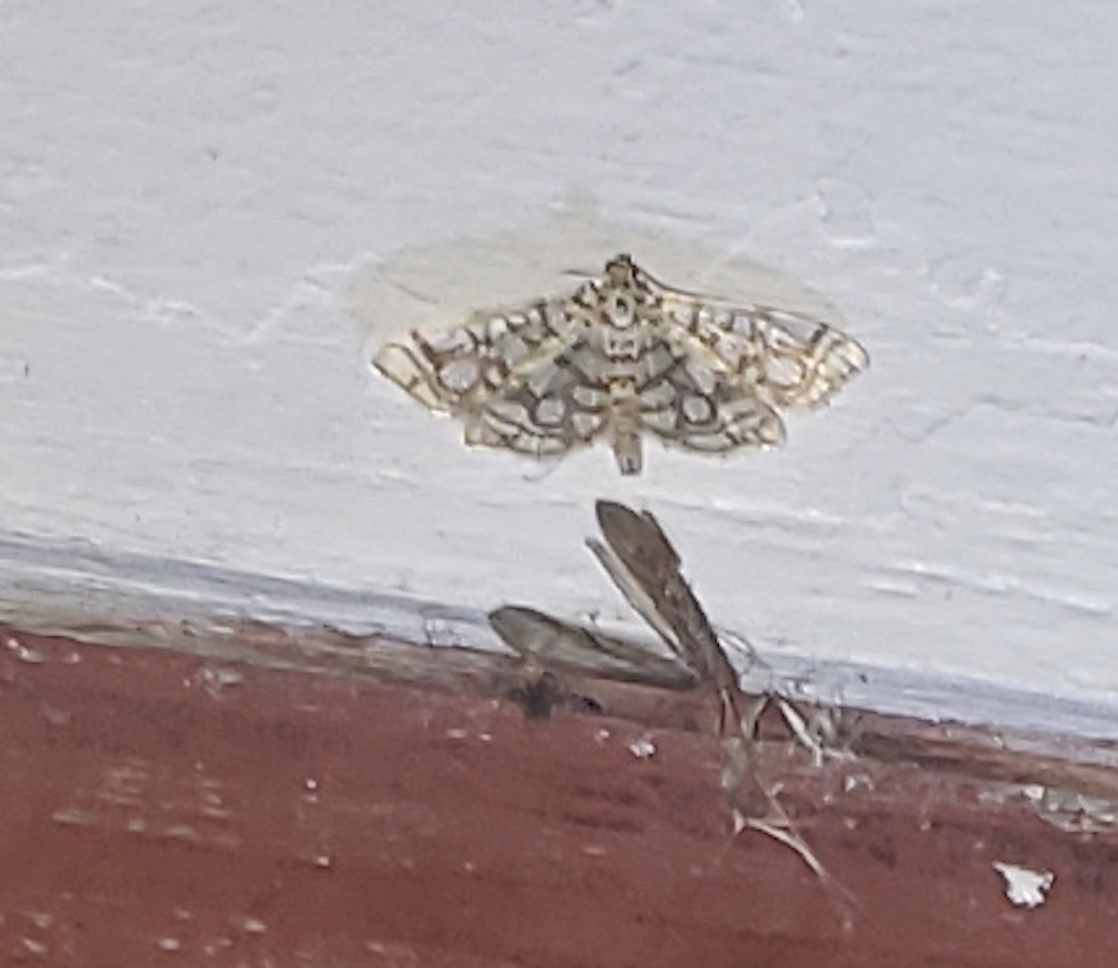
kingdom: Animalia
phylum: Arthropoda
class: Insecta
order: Lepidoptera
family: Crambidae
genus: Lygropia
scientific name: Lygropia rivulalis
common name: Bog lygropia moth
